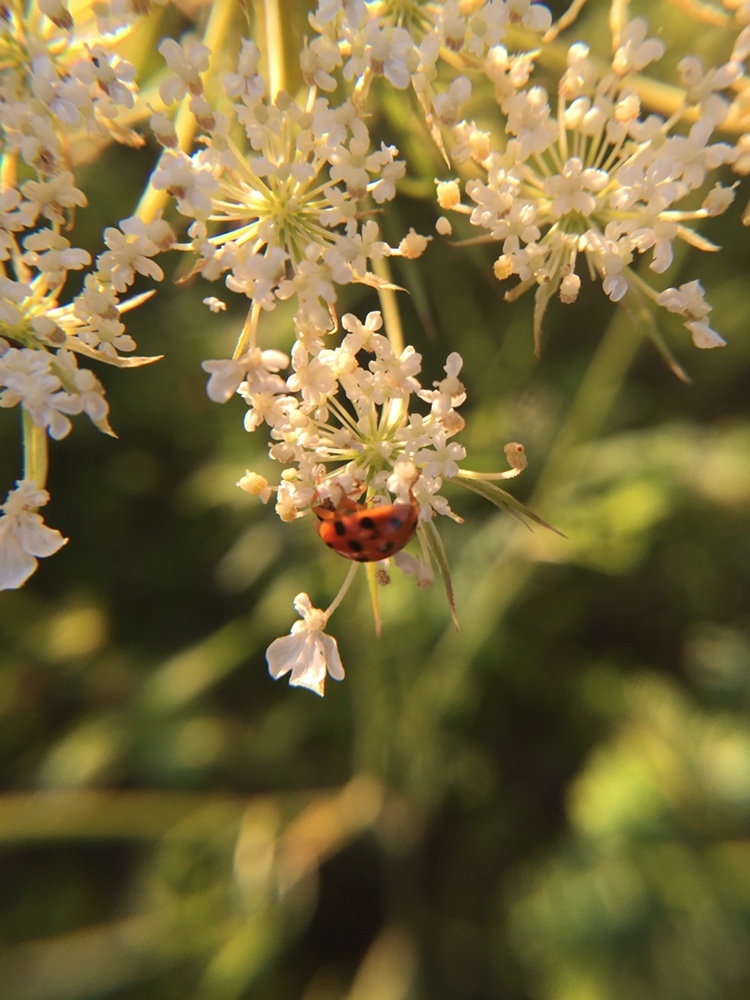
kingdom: Animalia
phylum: Arthropoda
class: Insecta
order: Coleoptera
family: Coccinellidae
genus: Harmonia
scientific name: Harmonia axyridis
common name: Harlequin ladybird
